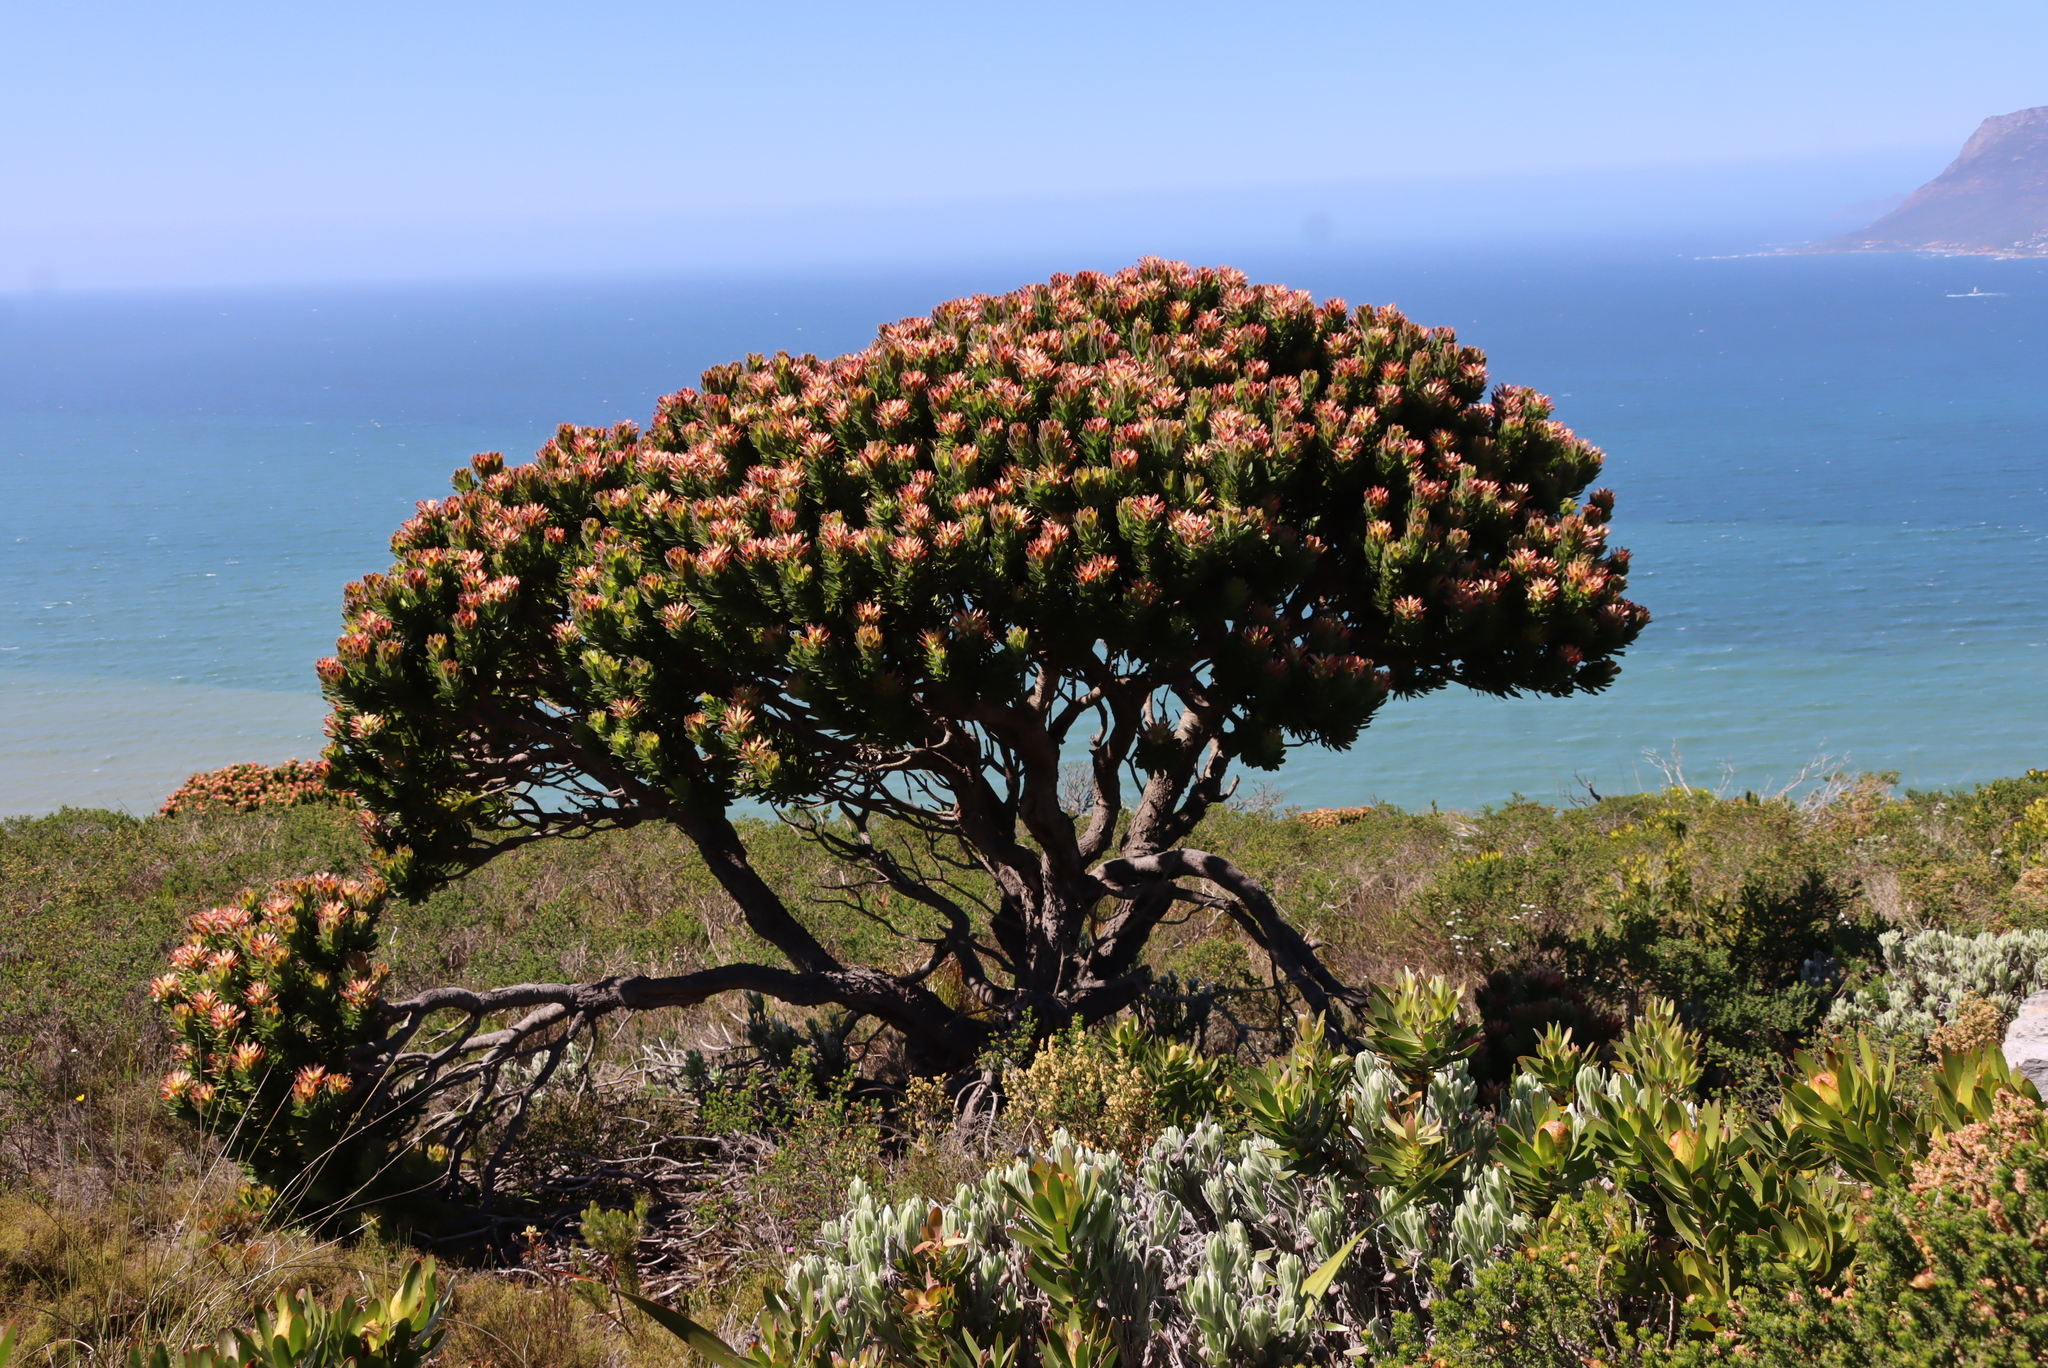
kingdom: Plantae
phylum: Tracheophyta
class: Magnoliopsida
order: Proteales
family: Proteaceae
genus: Mimetes
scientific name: Mimetes fimbriifolius
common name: Fringed bottlebrush
